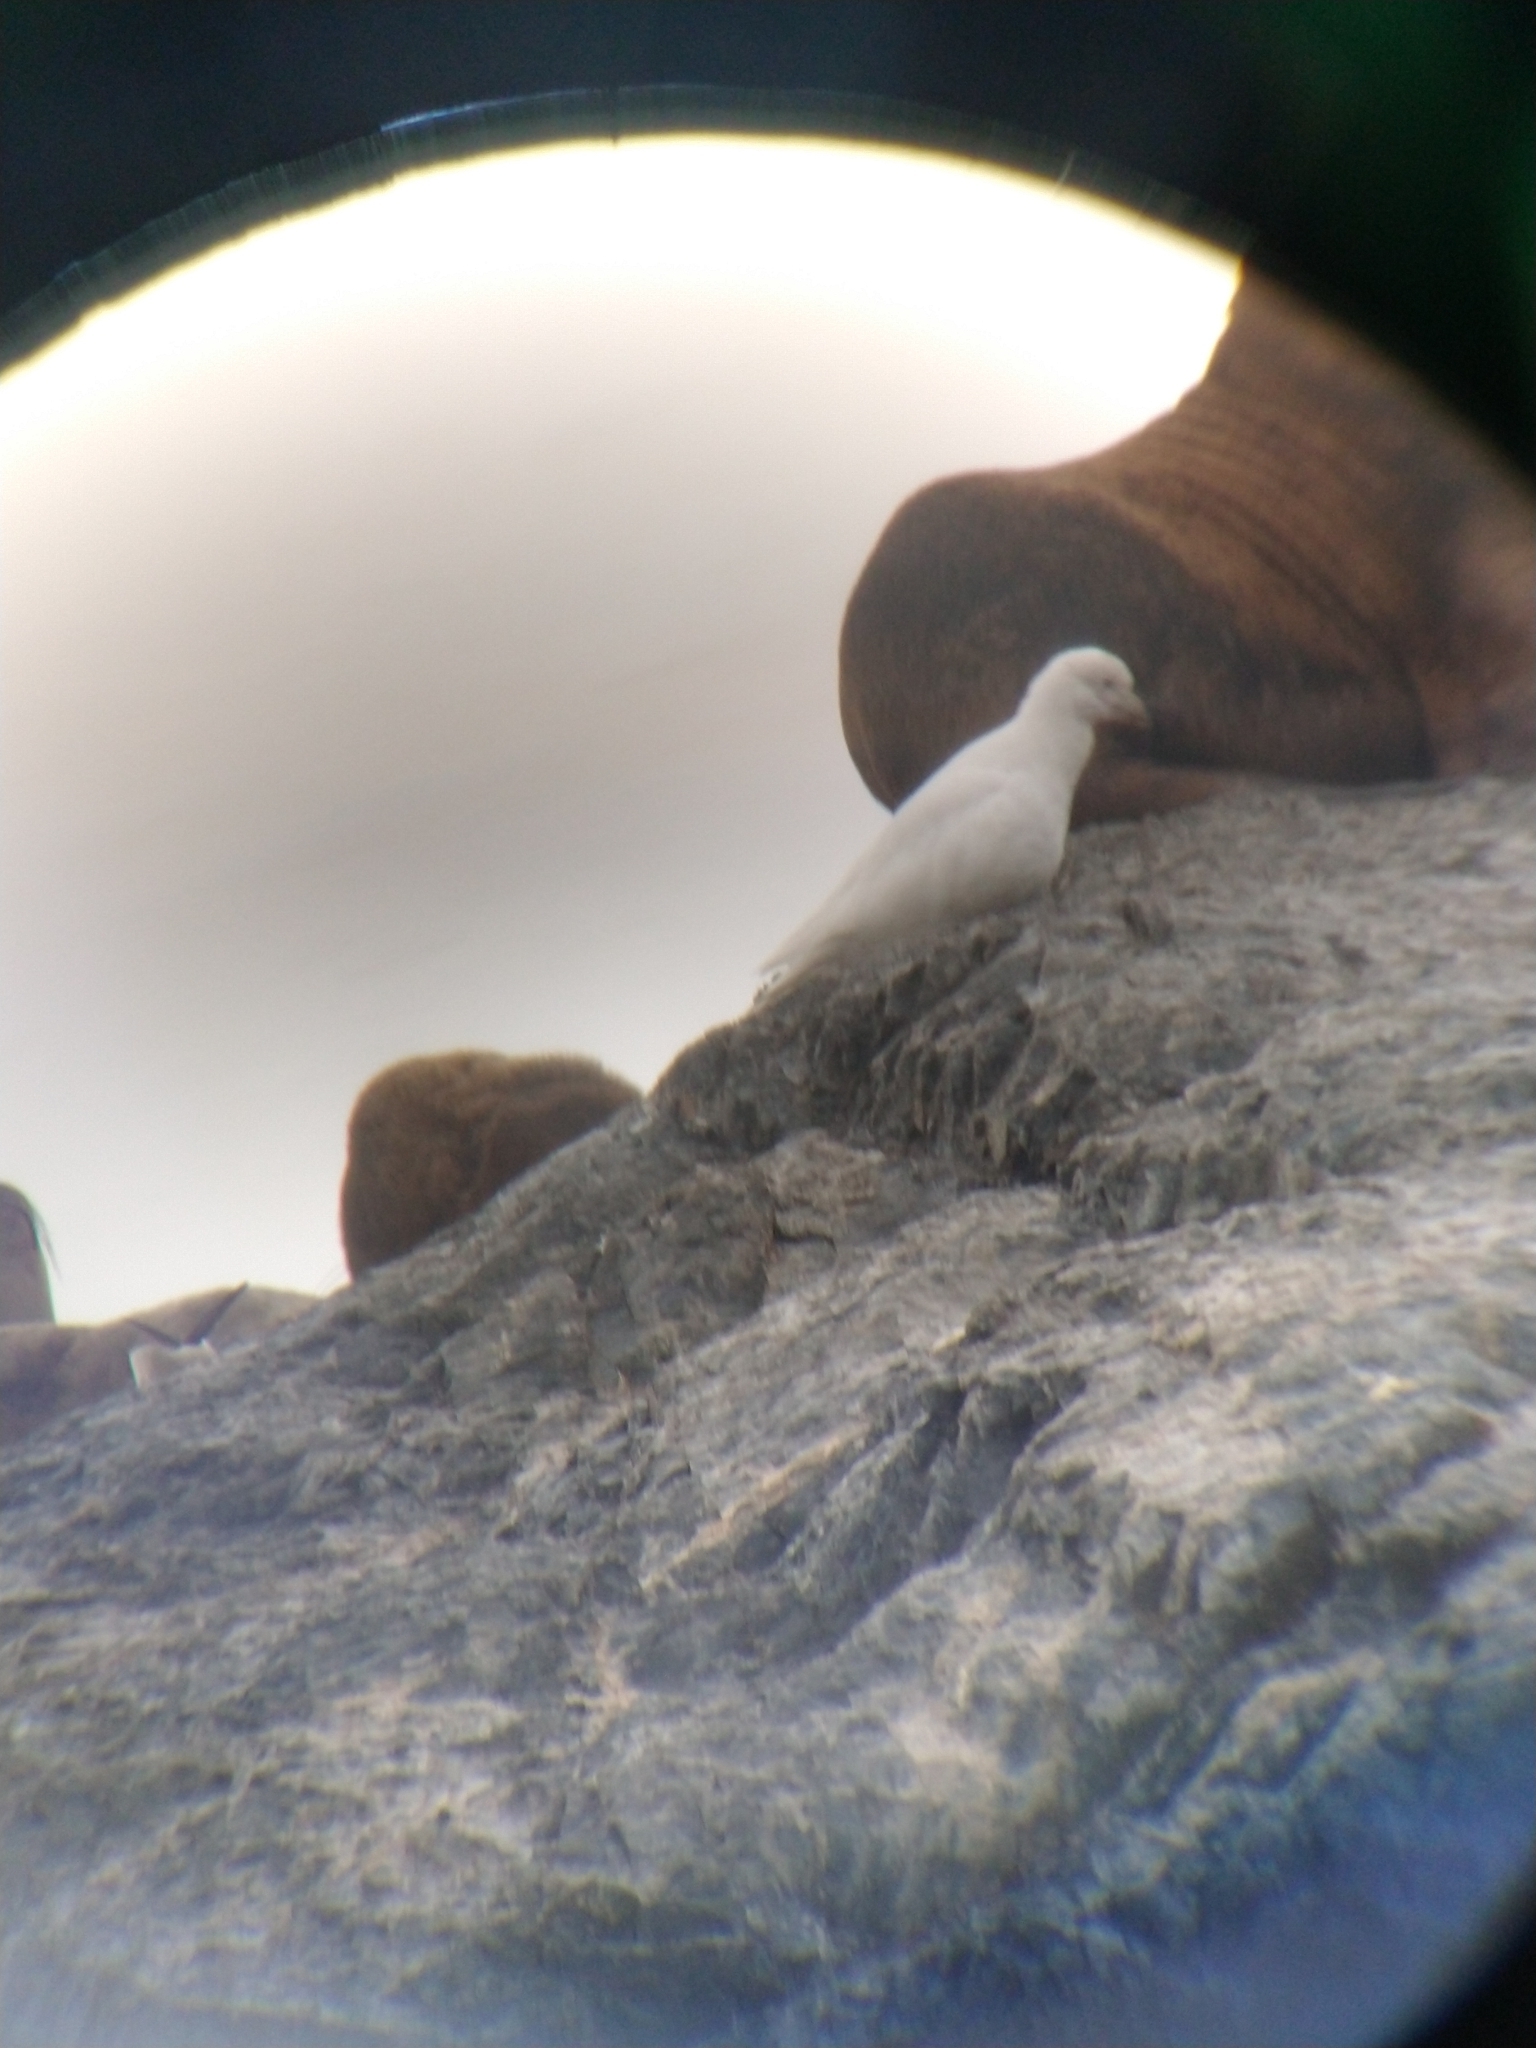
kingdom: Animalia
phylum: Chordata
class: Aves
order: Charadriiformes
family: Chionidae
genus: Chionis
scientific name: Chionis albus
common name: Snowy sheathbill
